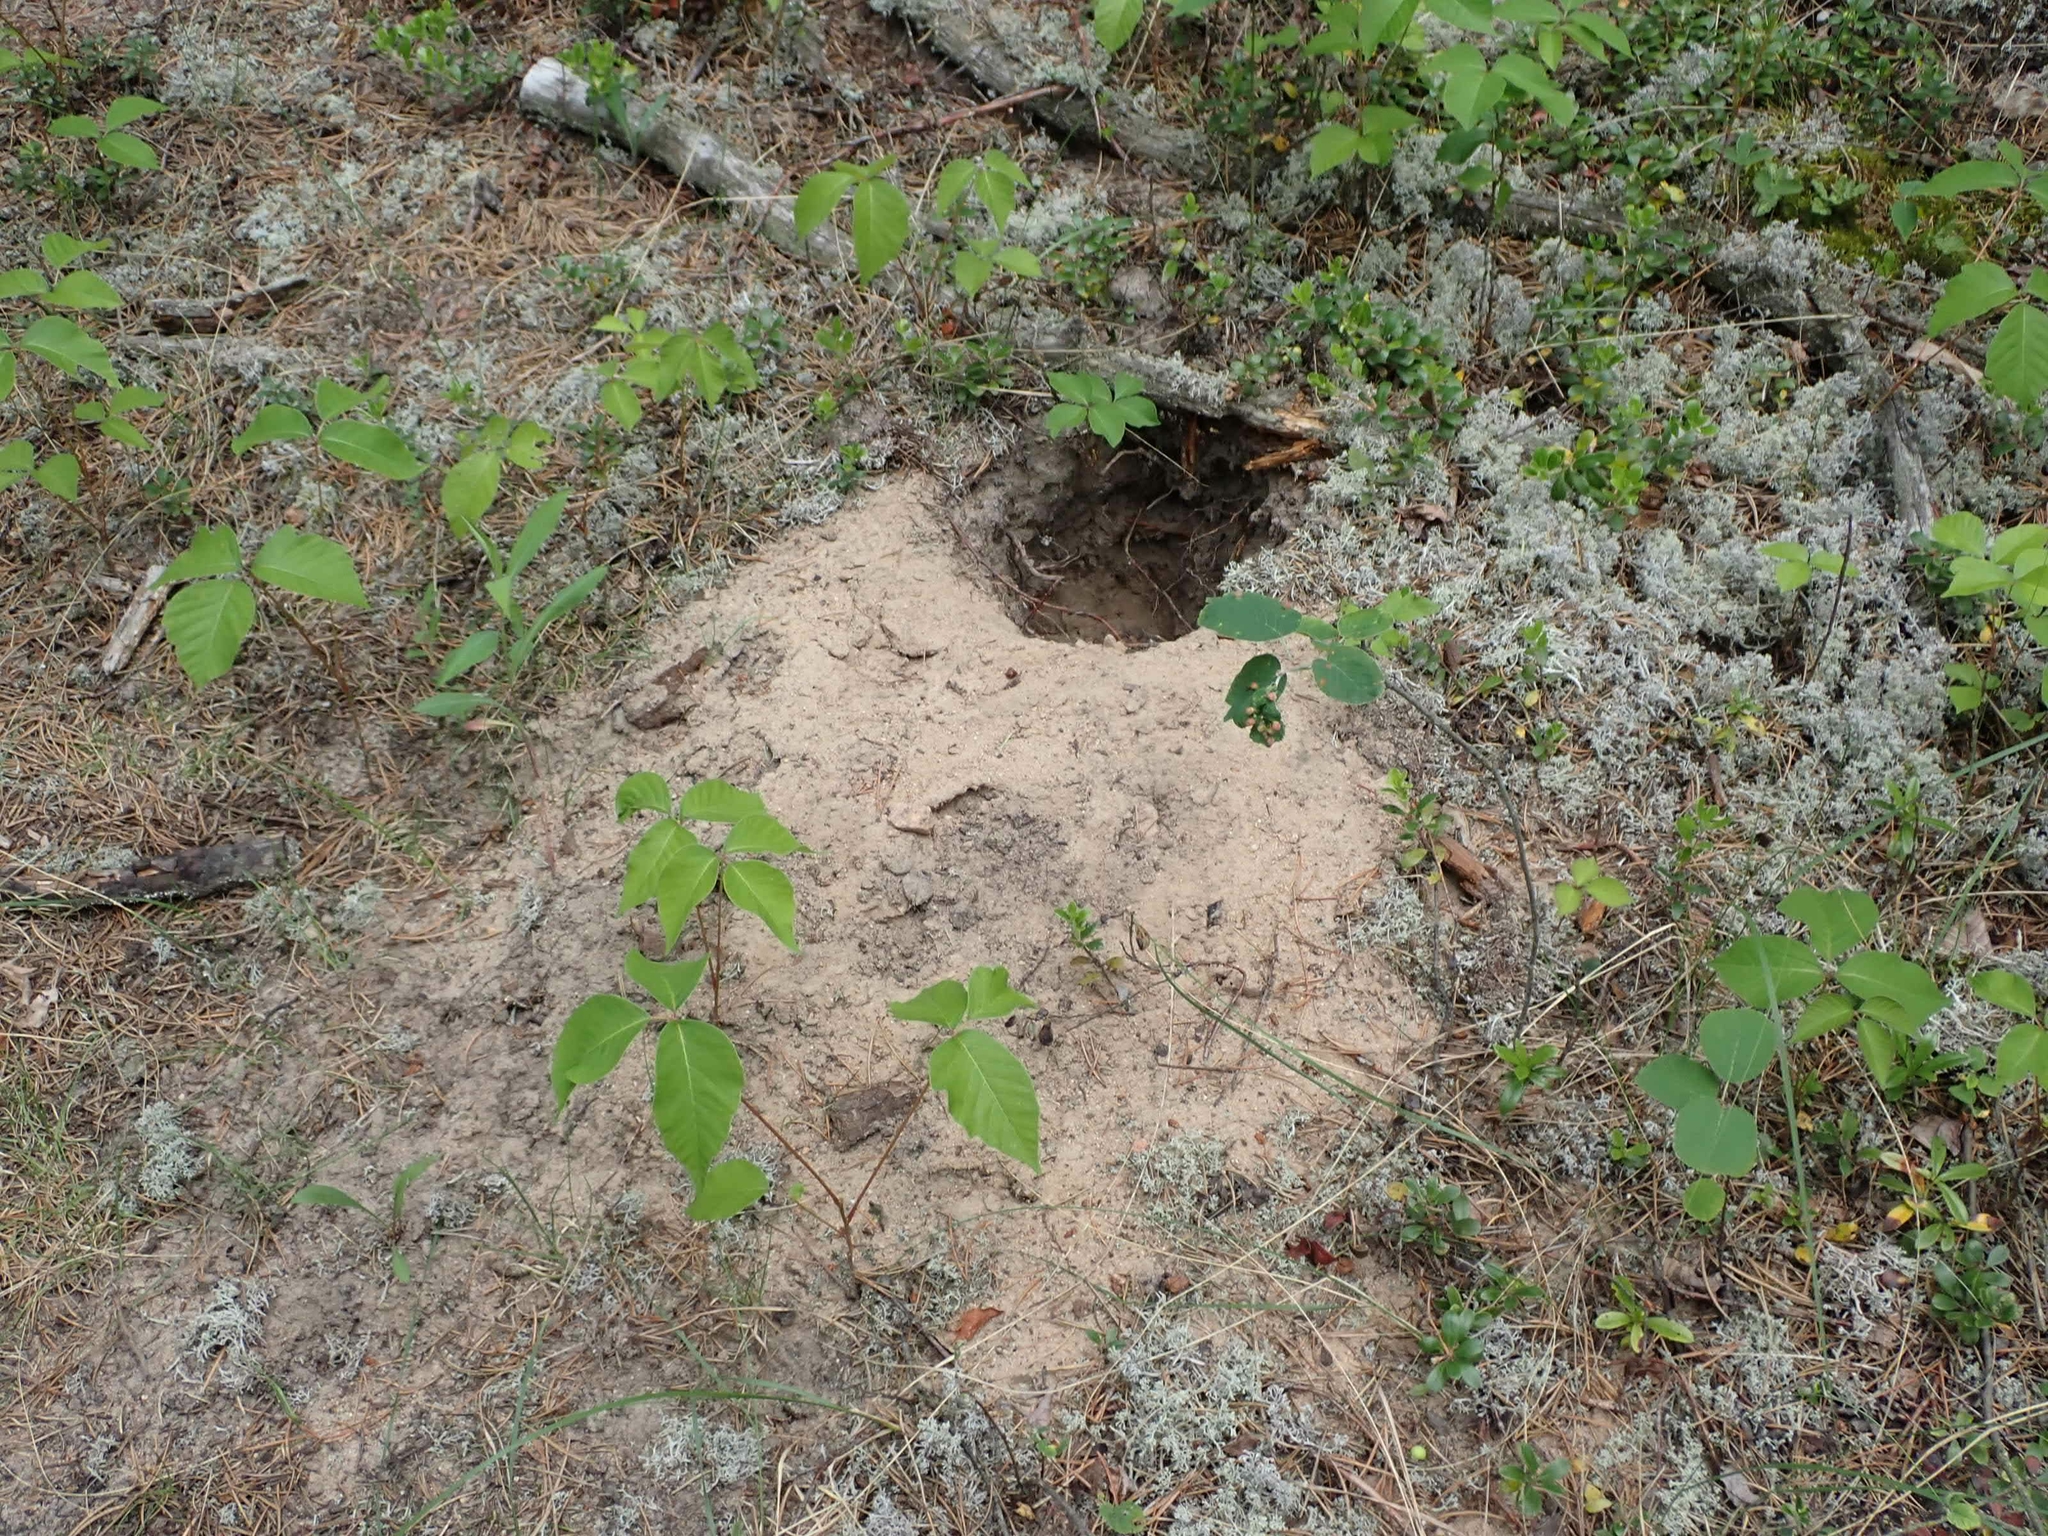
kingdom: Plantae
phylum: Tracheophyta
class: Magnoliopsida
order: Sapindales
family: Anacardiaceae
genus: Toxicodendron
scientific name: Toxicodendron rydbergii
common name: Rydberg's poison-ivy
